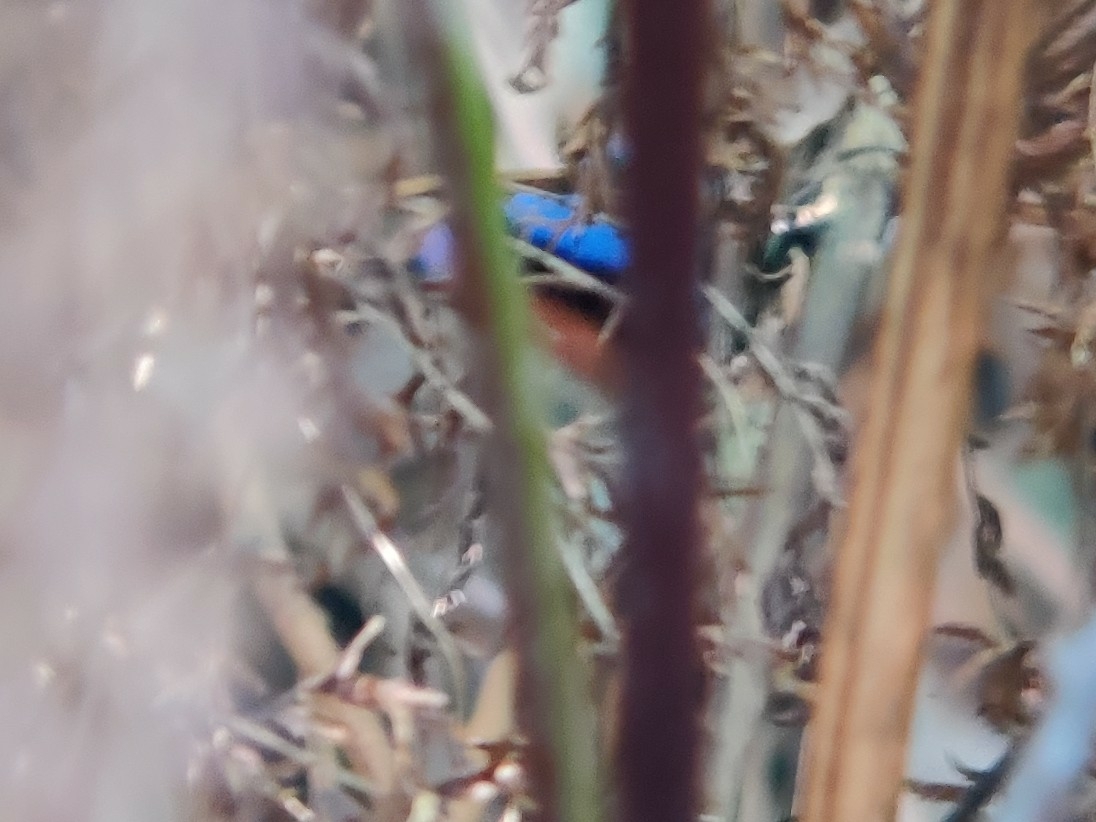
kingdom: Animalia
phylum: Chordata
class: Aves
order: Passeriformes
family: Maluridae
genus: Malurus
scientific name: Malurus lamberti
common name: Variegated fairywren
